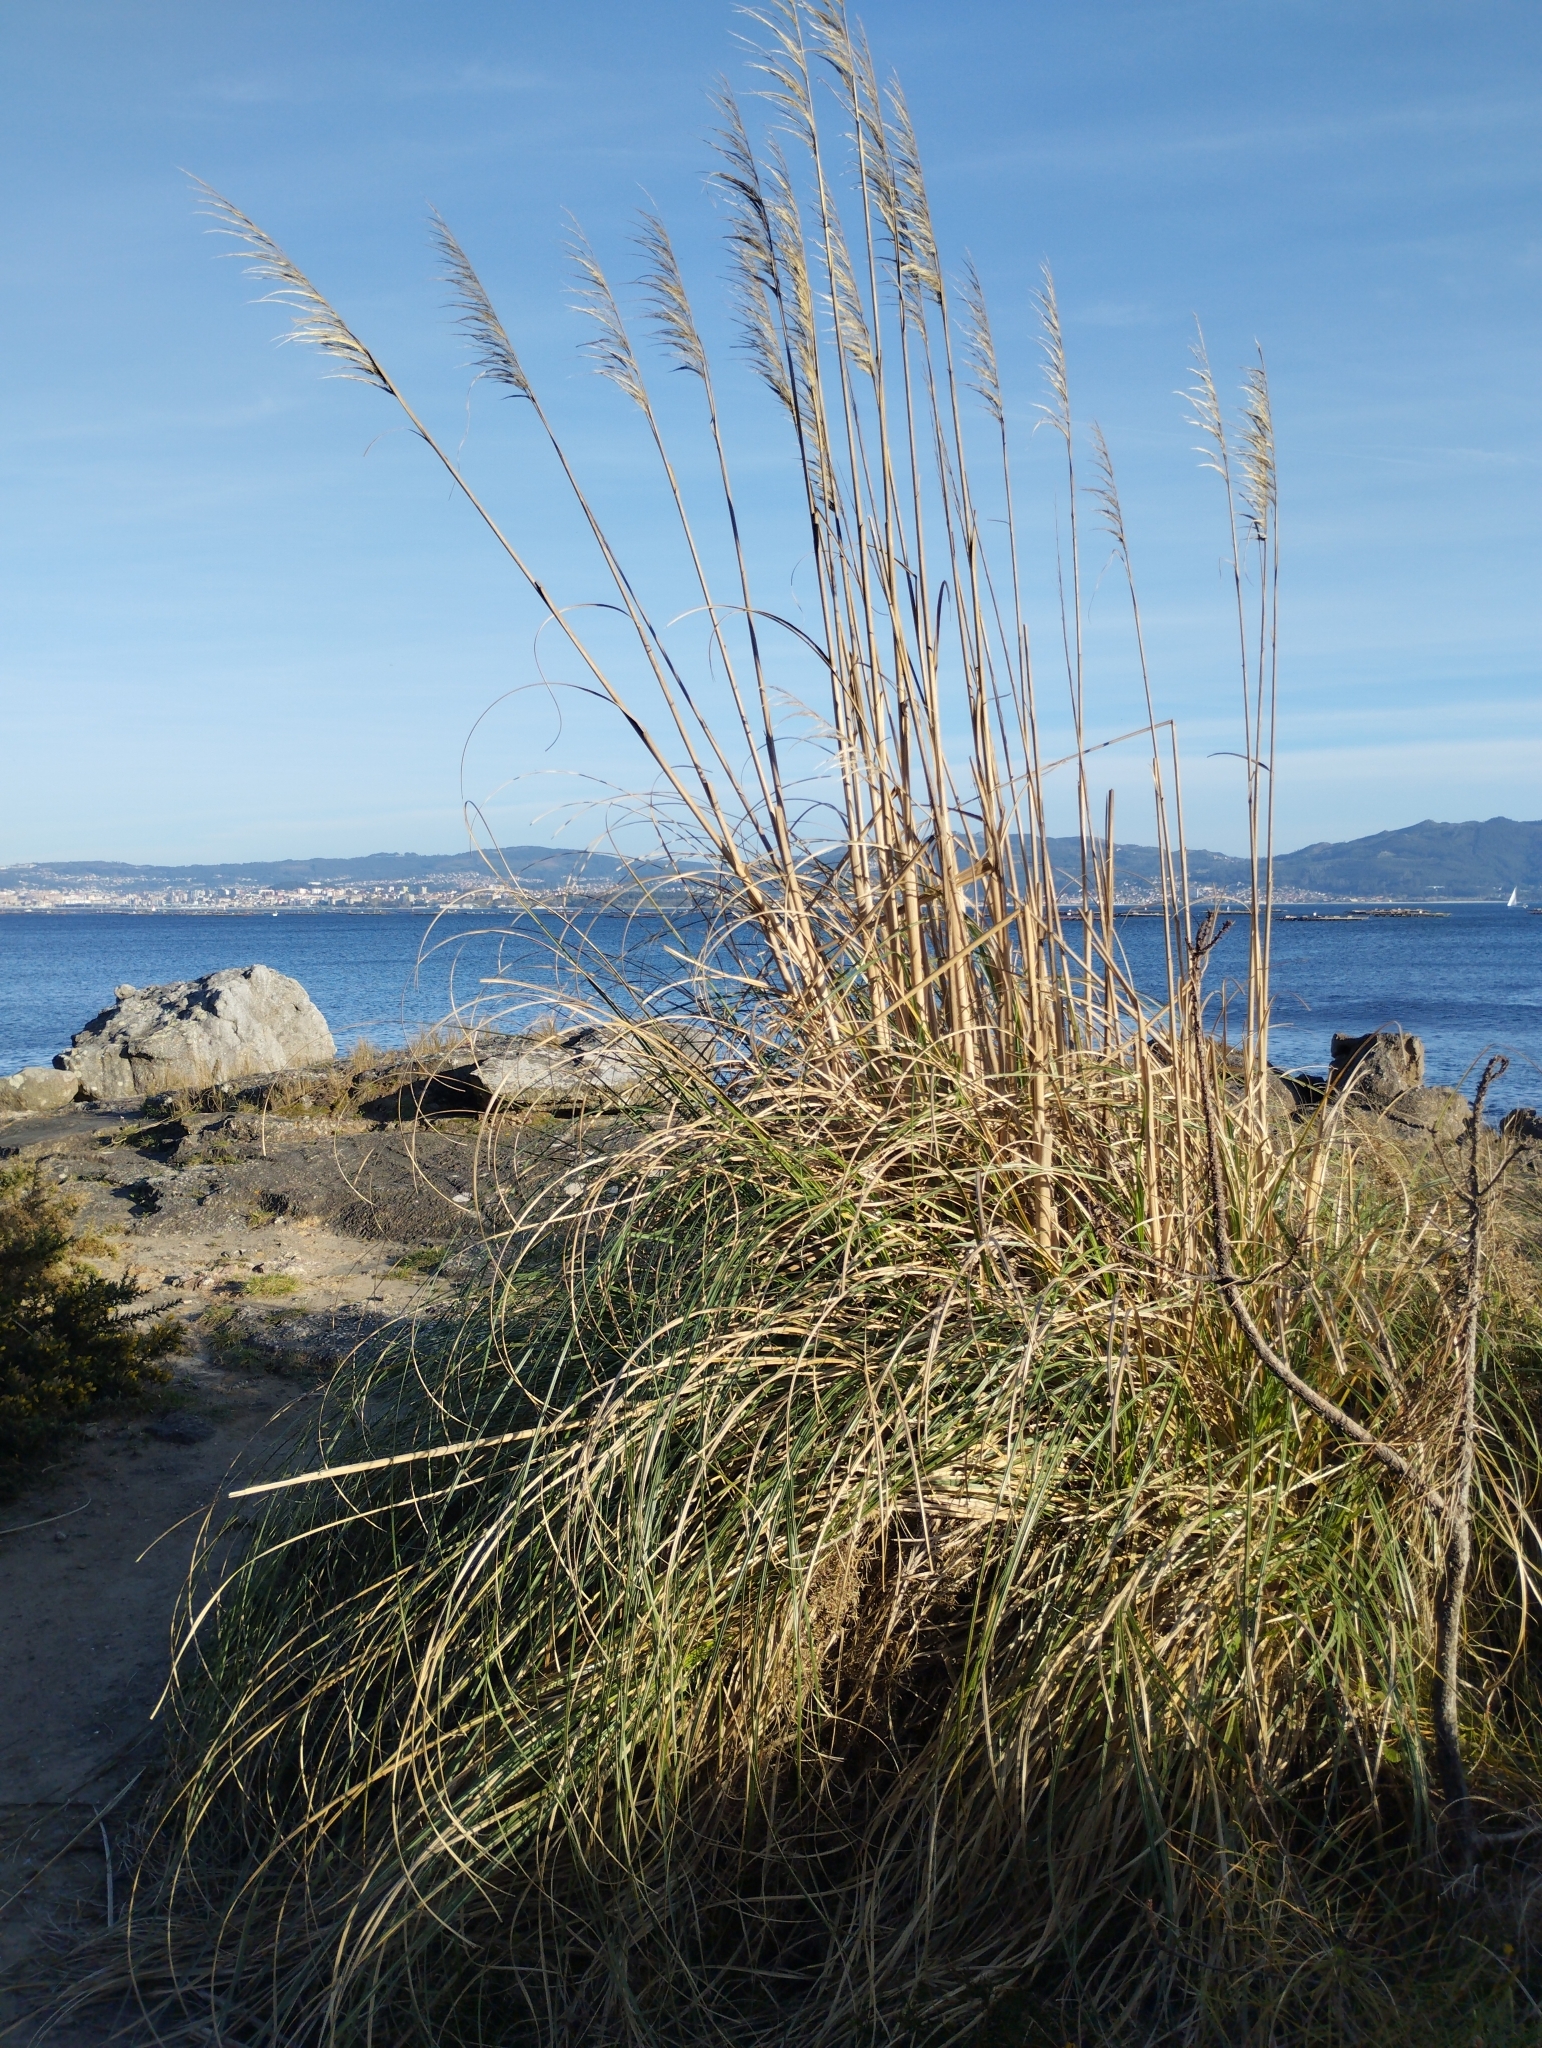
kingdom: Plantae
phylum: Tracheophyta
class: Liliopsida
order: Poales
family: Poaceae
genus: Cortaderia
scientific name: Cortaderia selloana
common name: Uruguayan pampas grass
